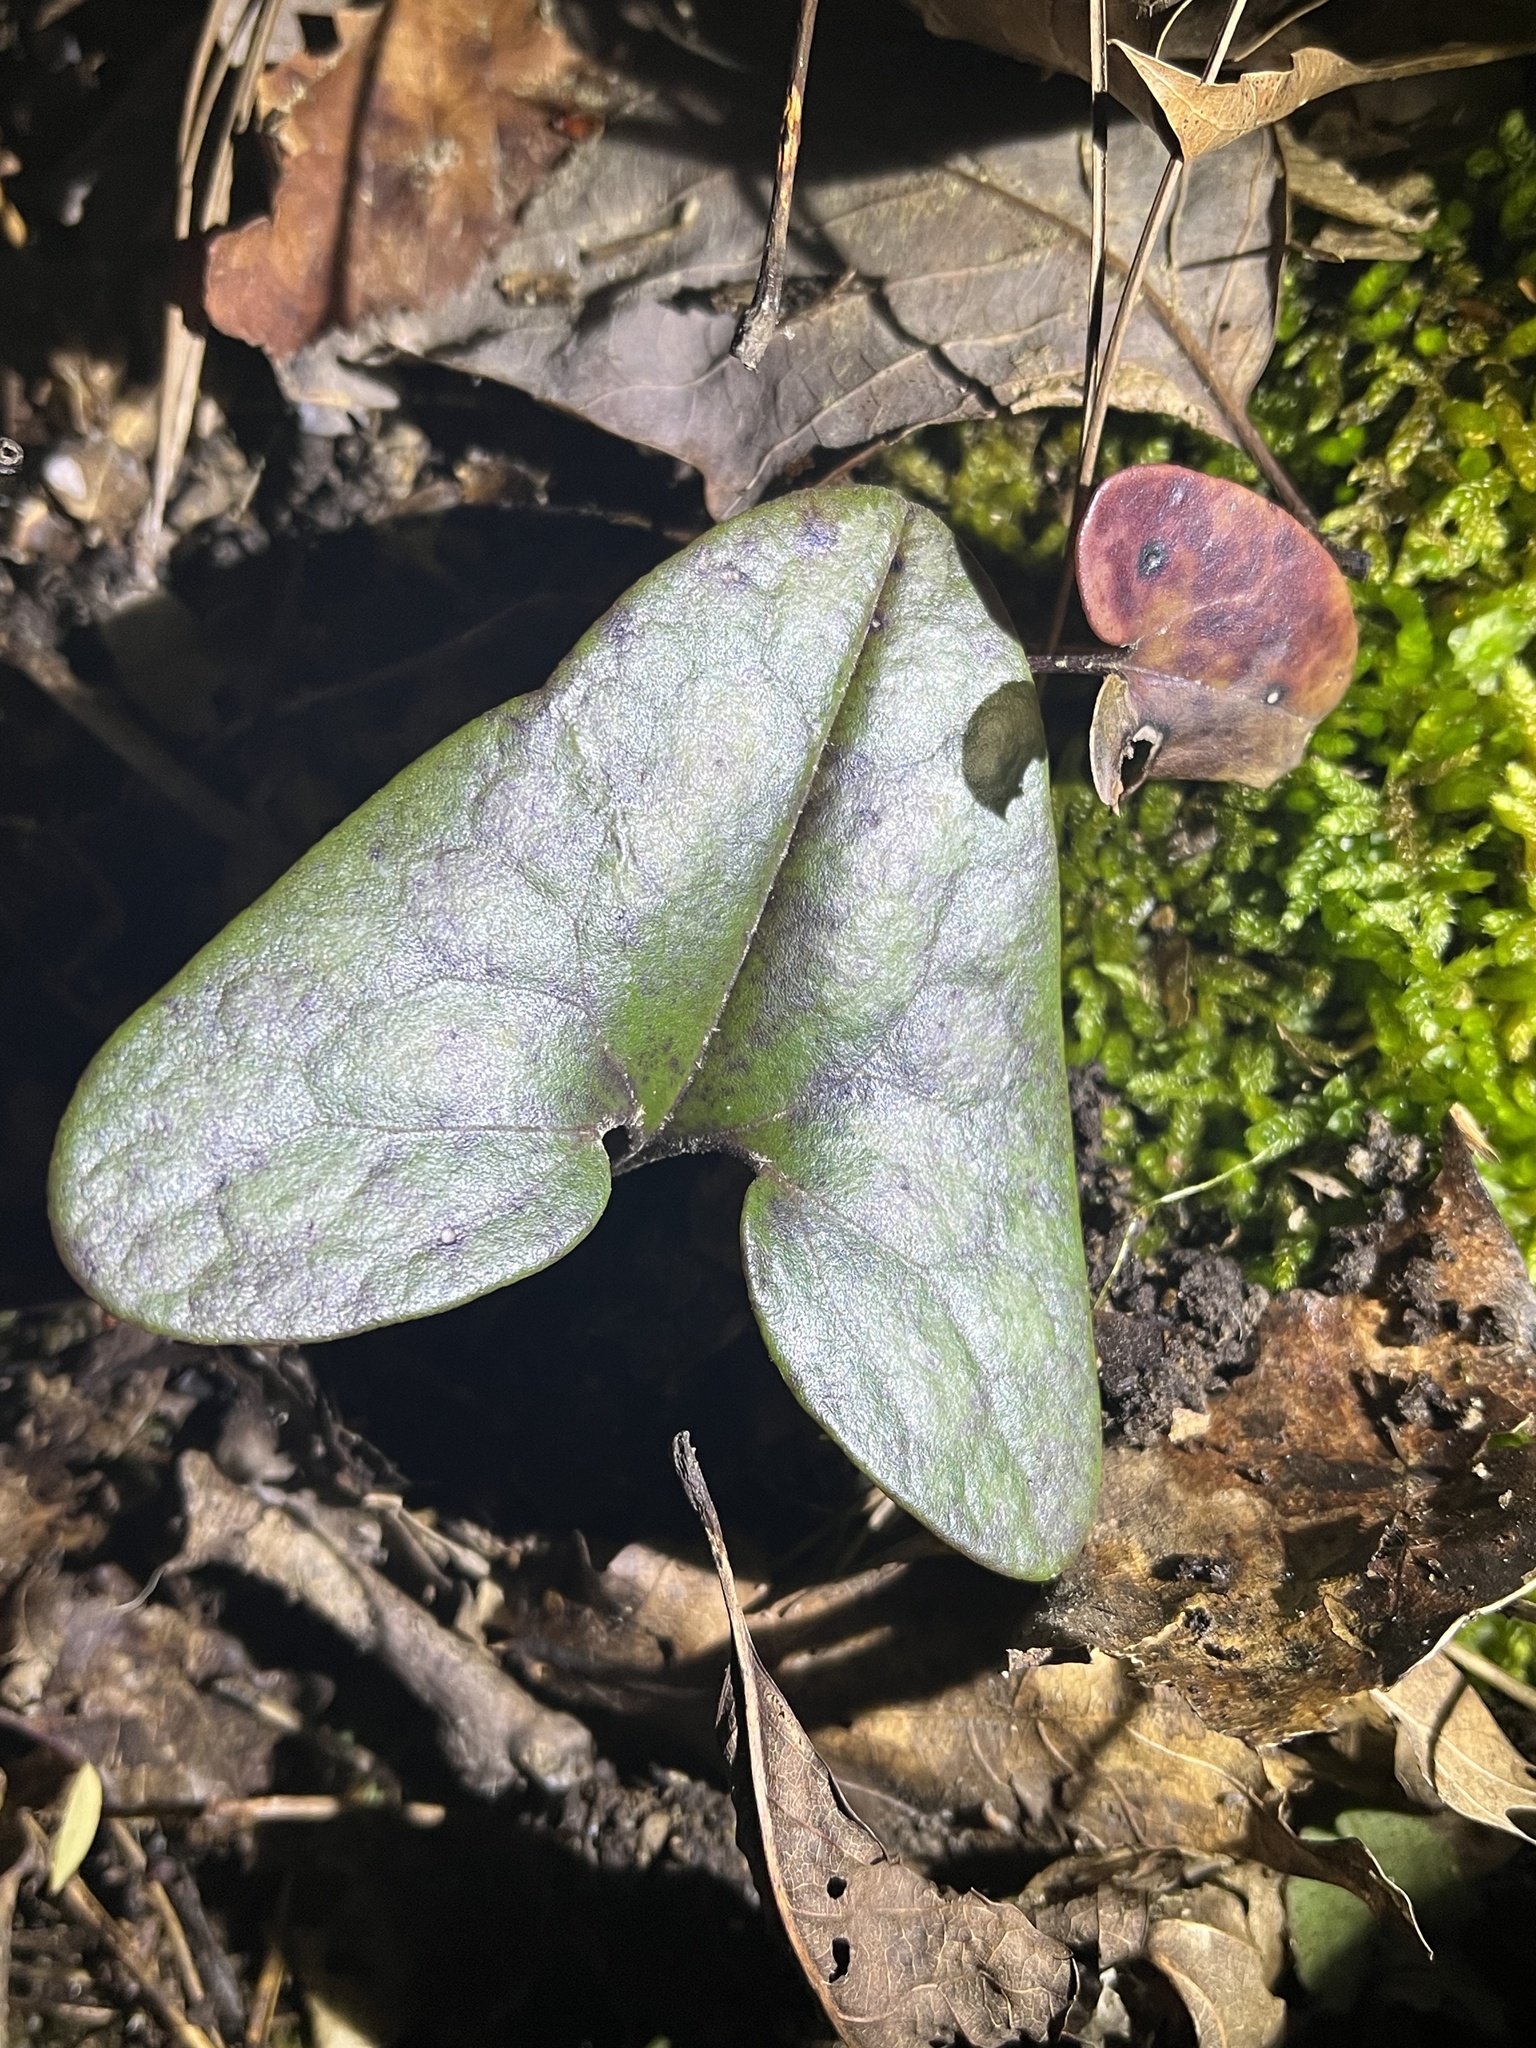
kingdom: Plantae
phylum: Tracheophyta
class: Magnoliopsida
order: Piperales
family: Aristolochiaceae
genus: Hexastylis
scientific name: Hexastylis arifolia
